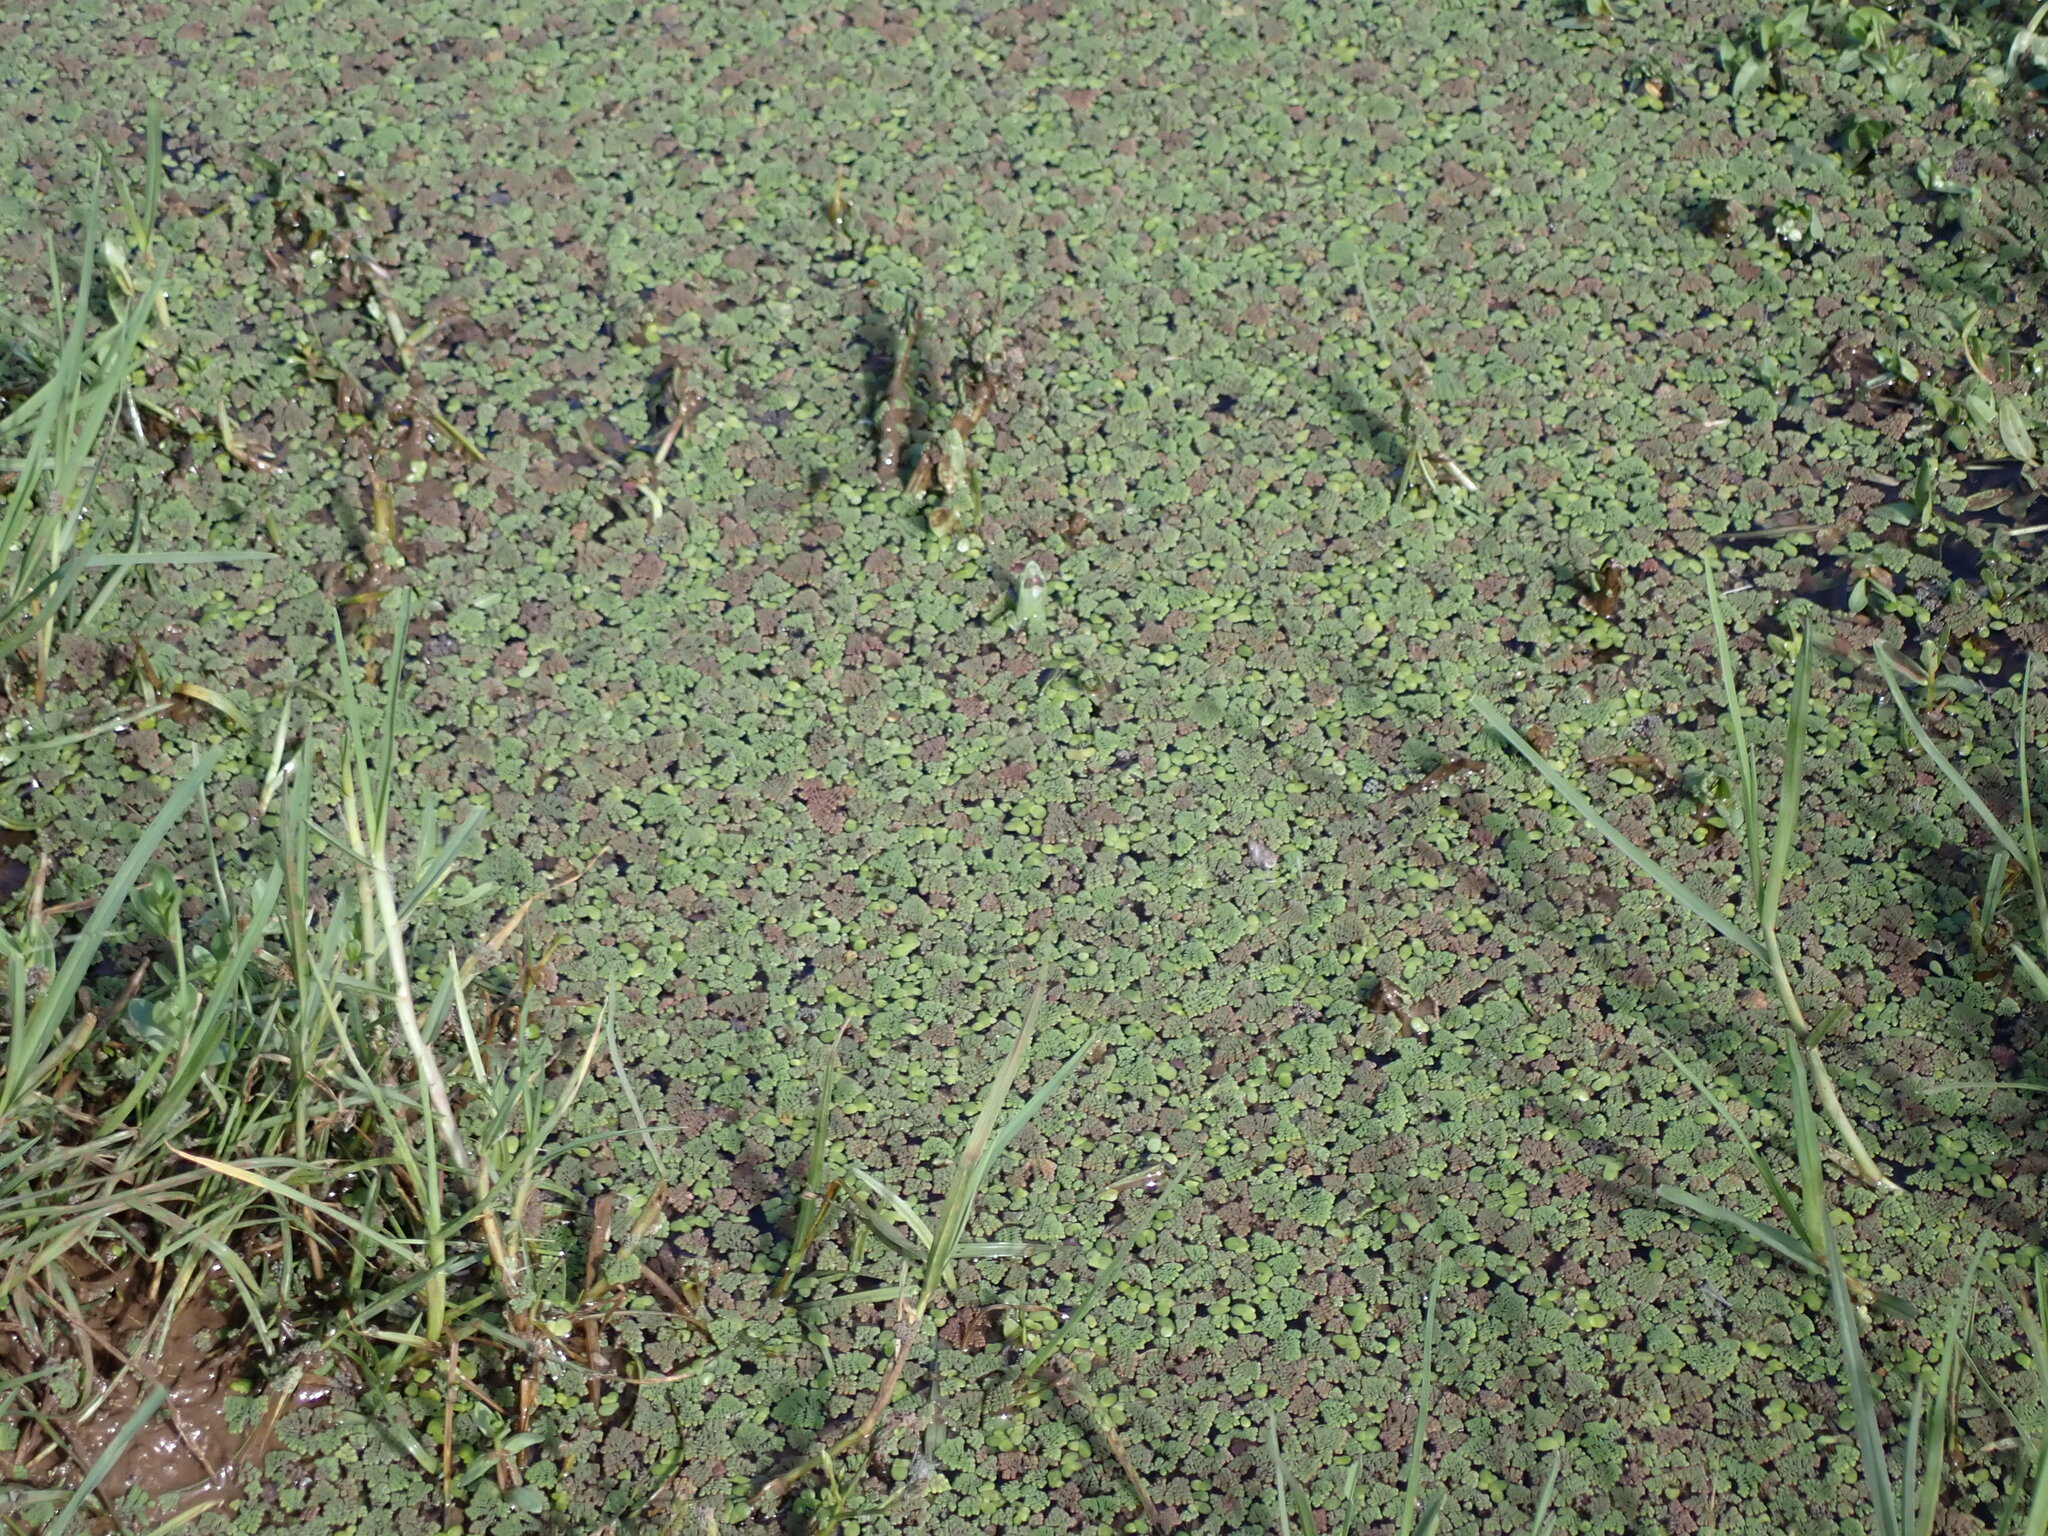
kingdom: Plantae
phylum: Tracheophyta
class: Polypodiopsida
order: Salviniales
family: Salviniaceae
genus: Azolla
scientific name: Azolla pinnata
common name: Ferny azolla
